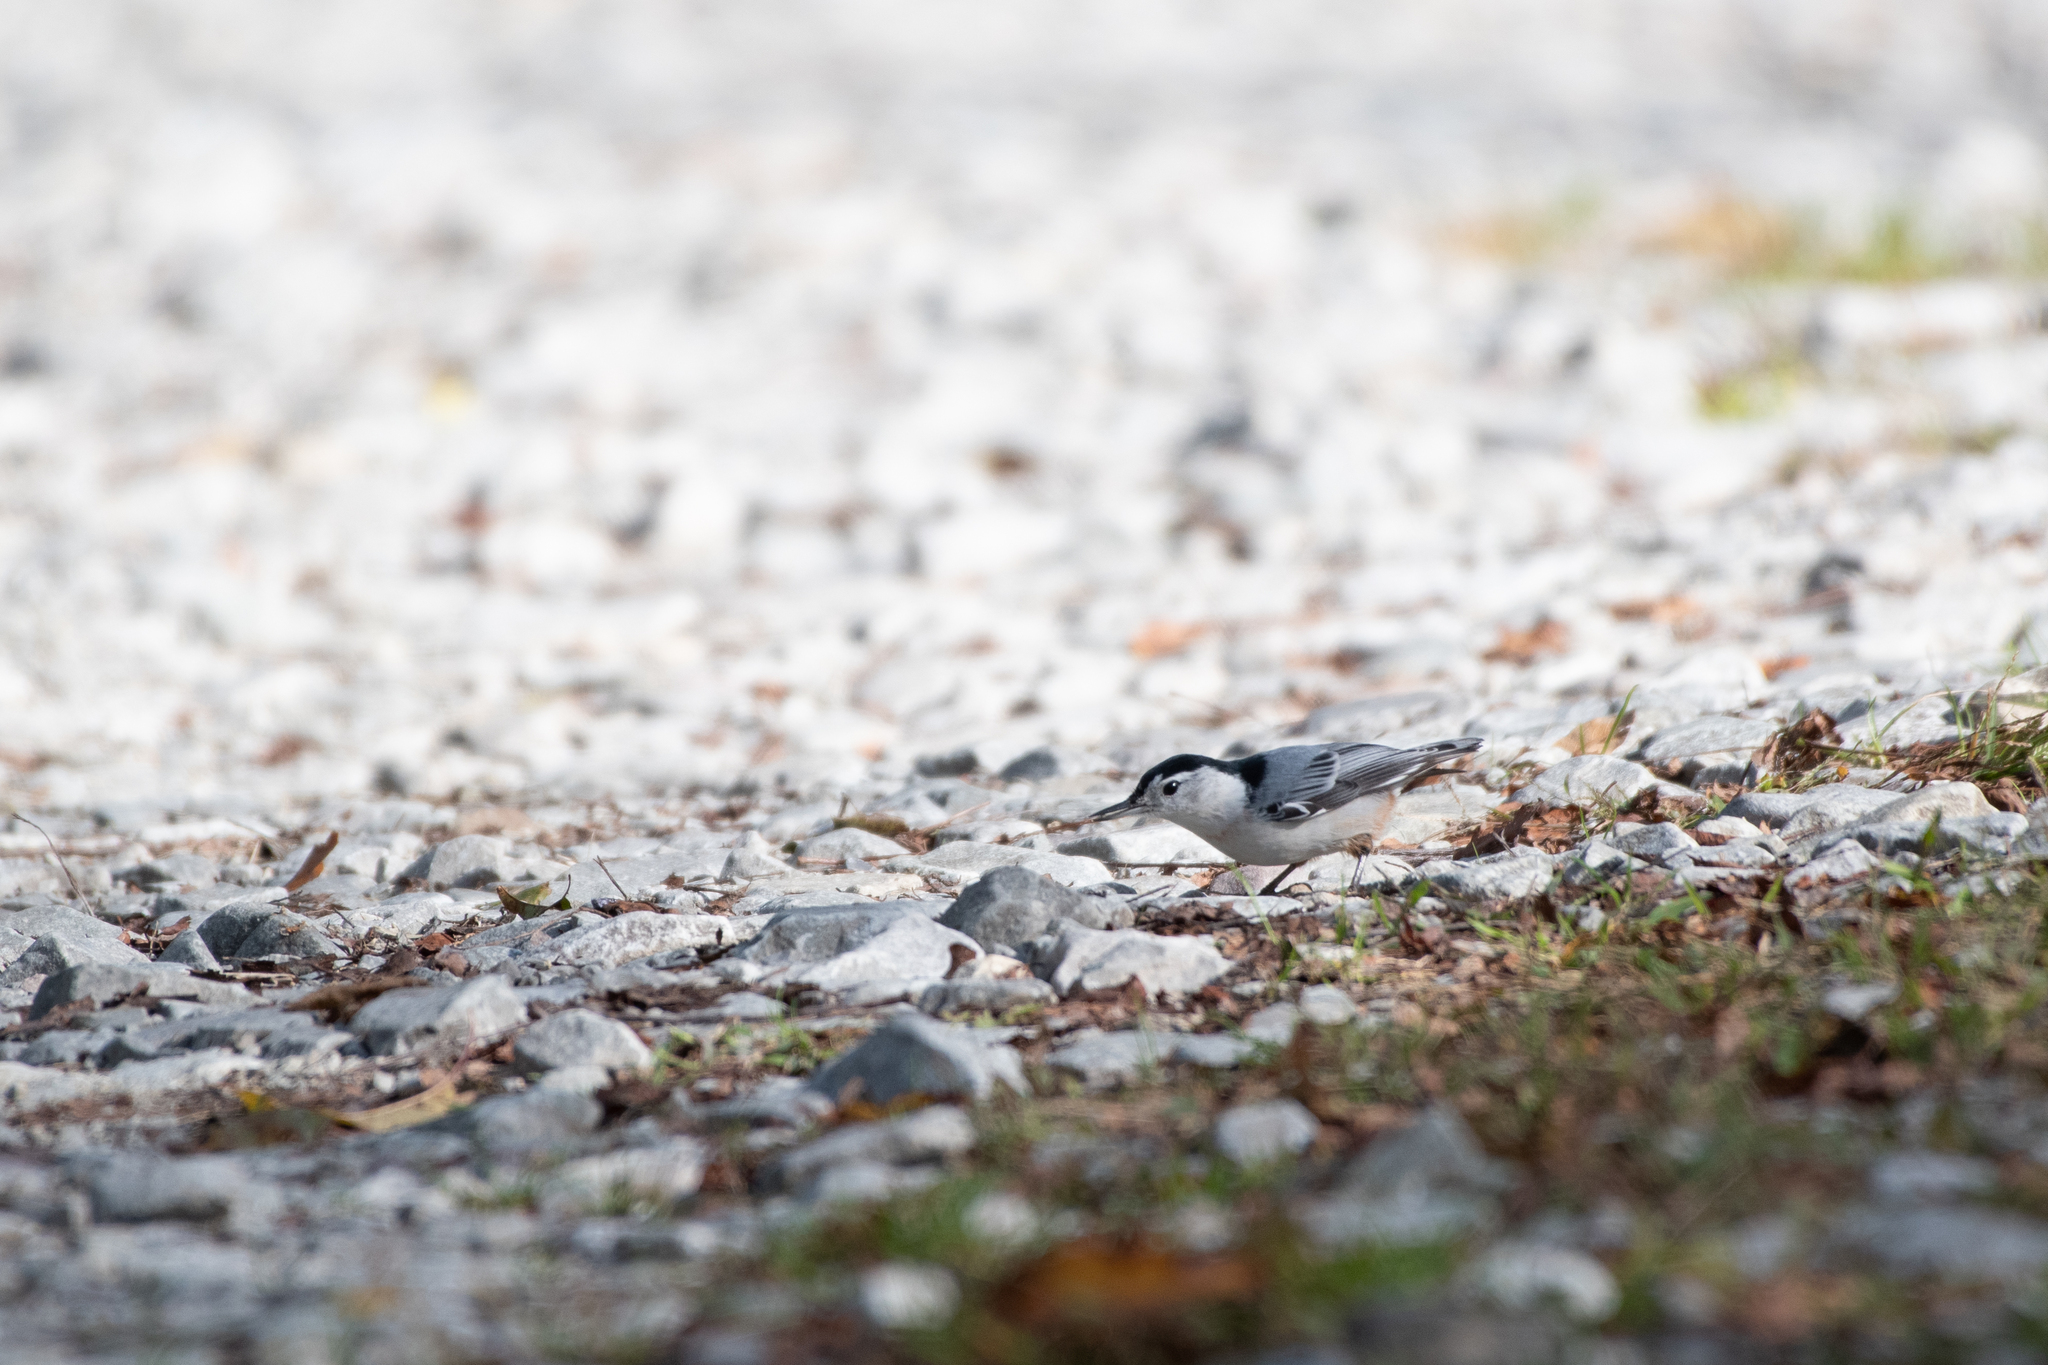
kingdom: Animalia
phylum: Chordata
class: Aves
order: Passeriformes
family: Sittidae
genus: Sitta
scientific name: Sitta carolinensis
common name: White-breasted nuthatch
